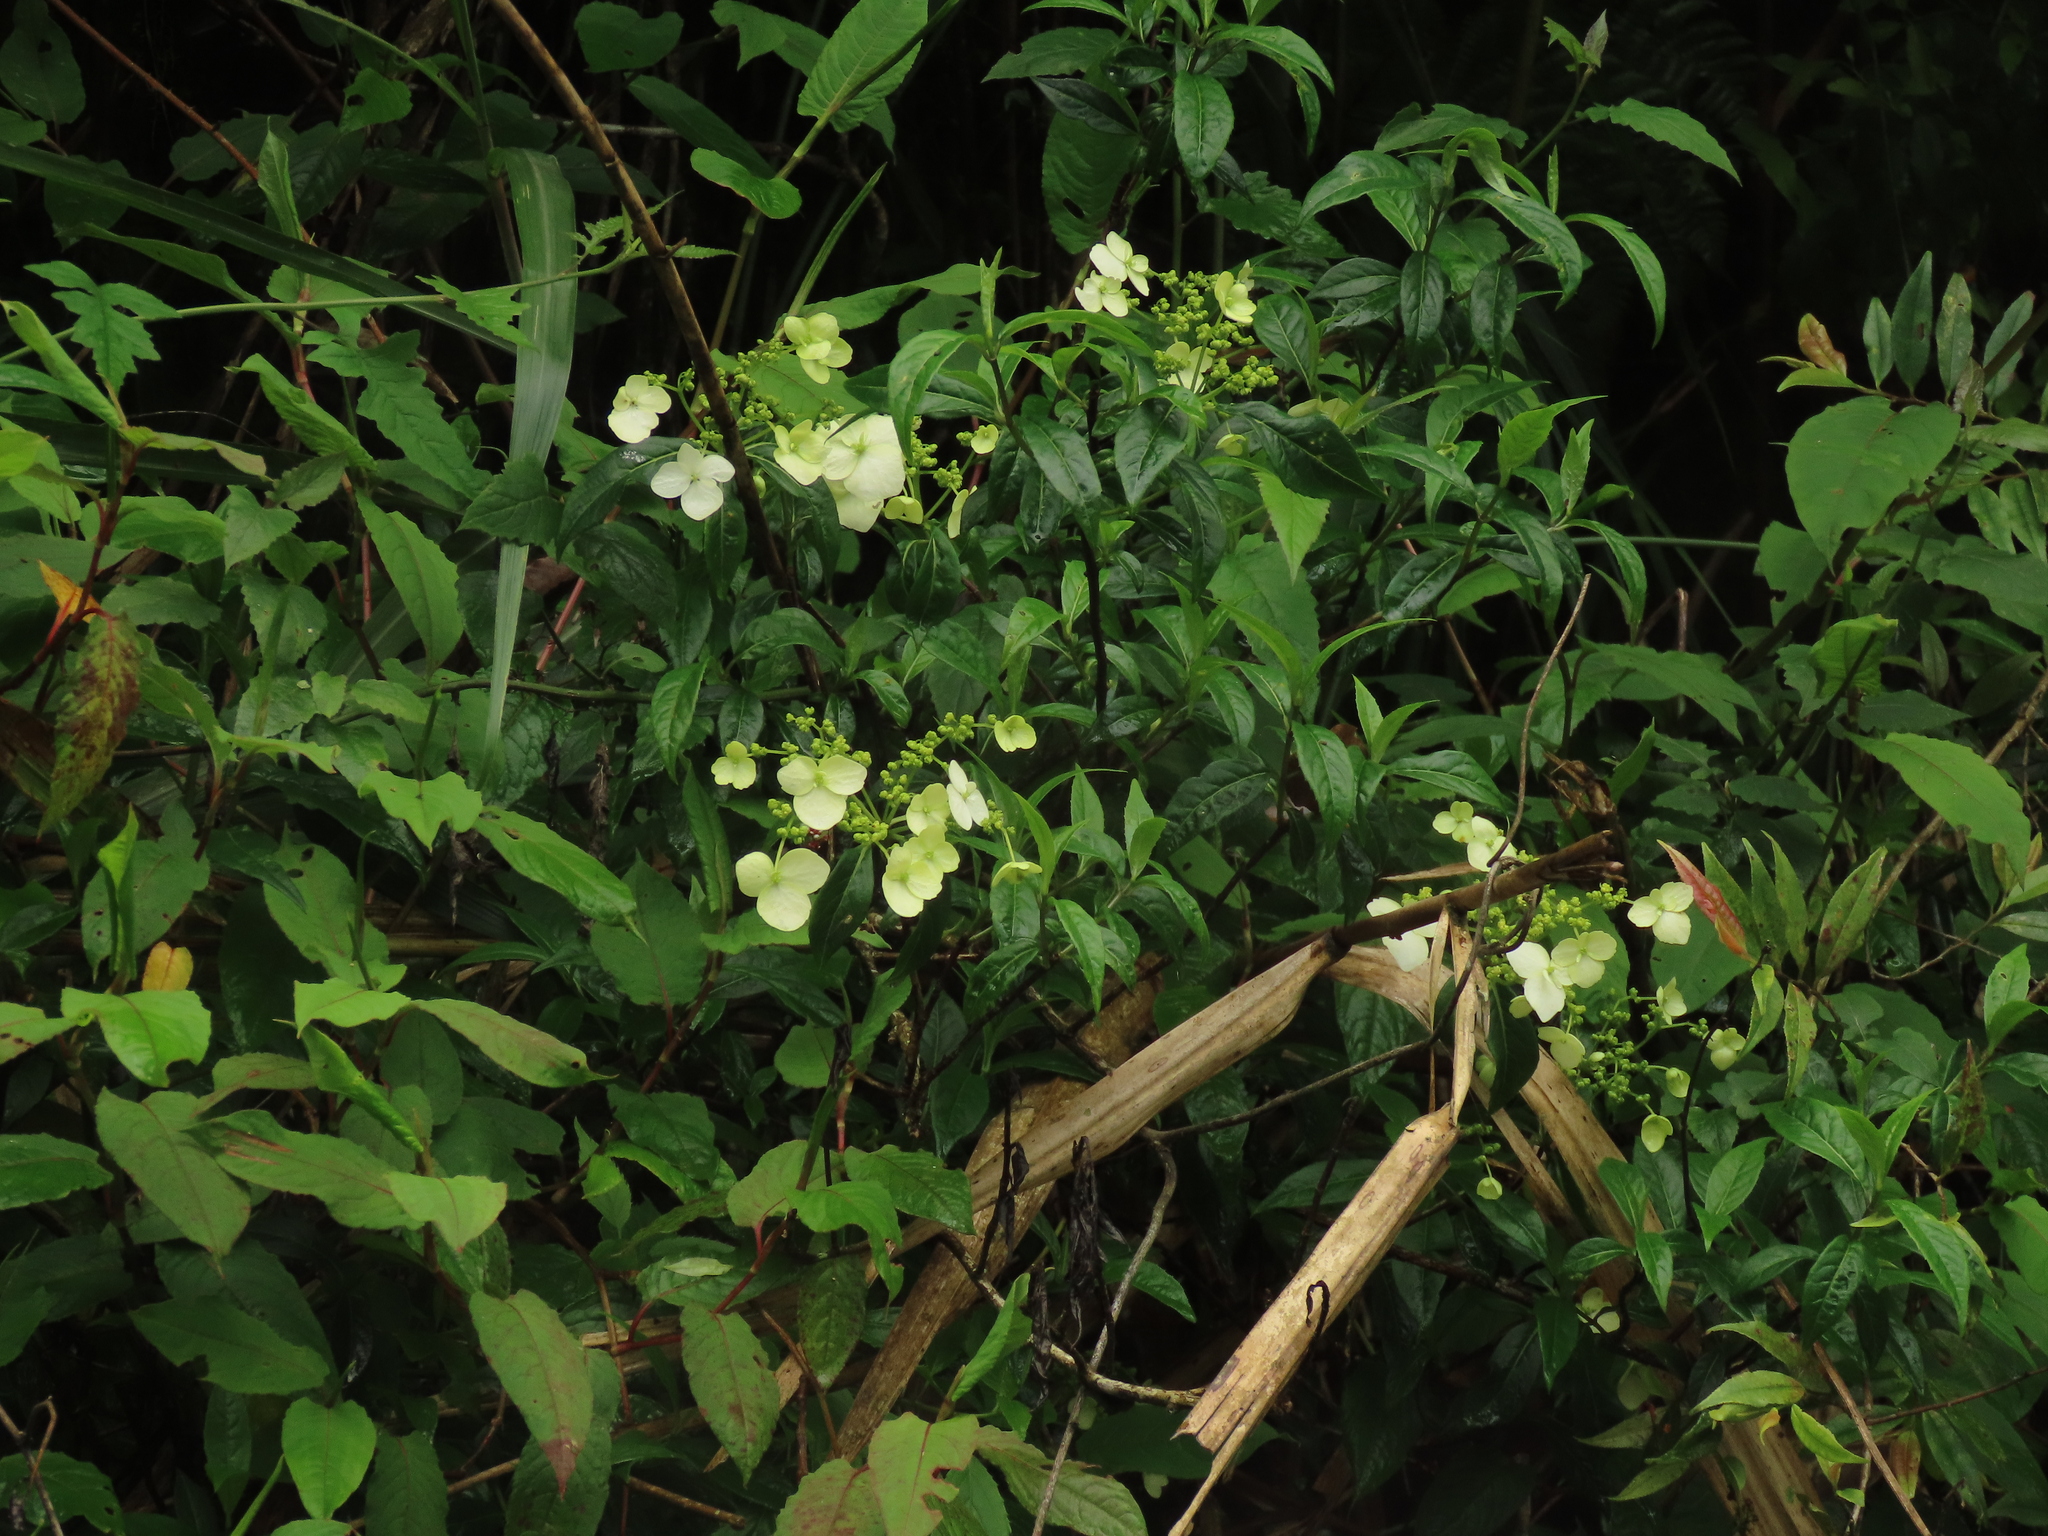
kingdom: Plantae
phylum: Tracheophyta
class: Magnoliopsida
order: Cornales
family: Hydrangeaceae
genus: Hydrangea
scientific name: Hydrangea chinensis
